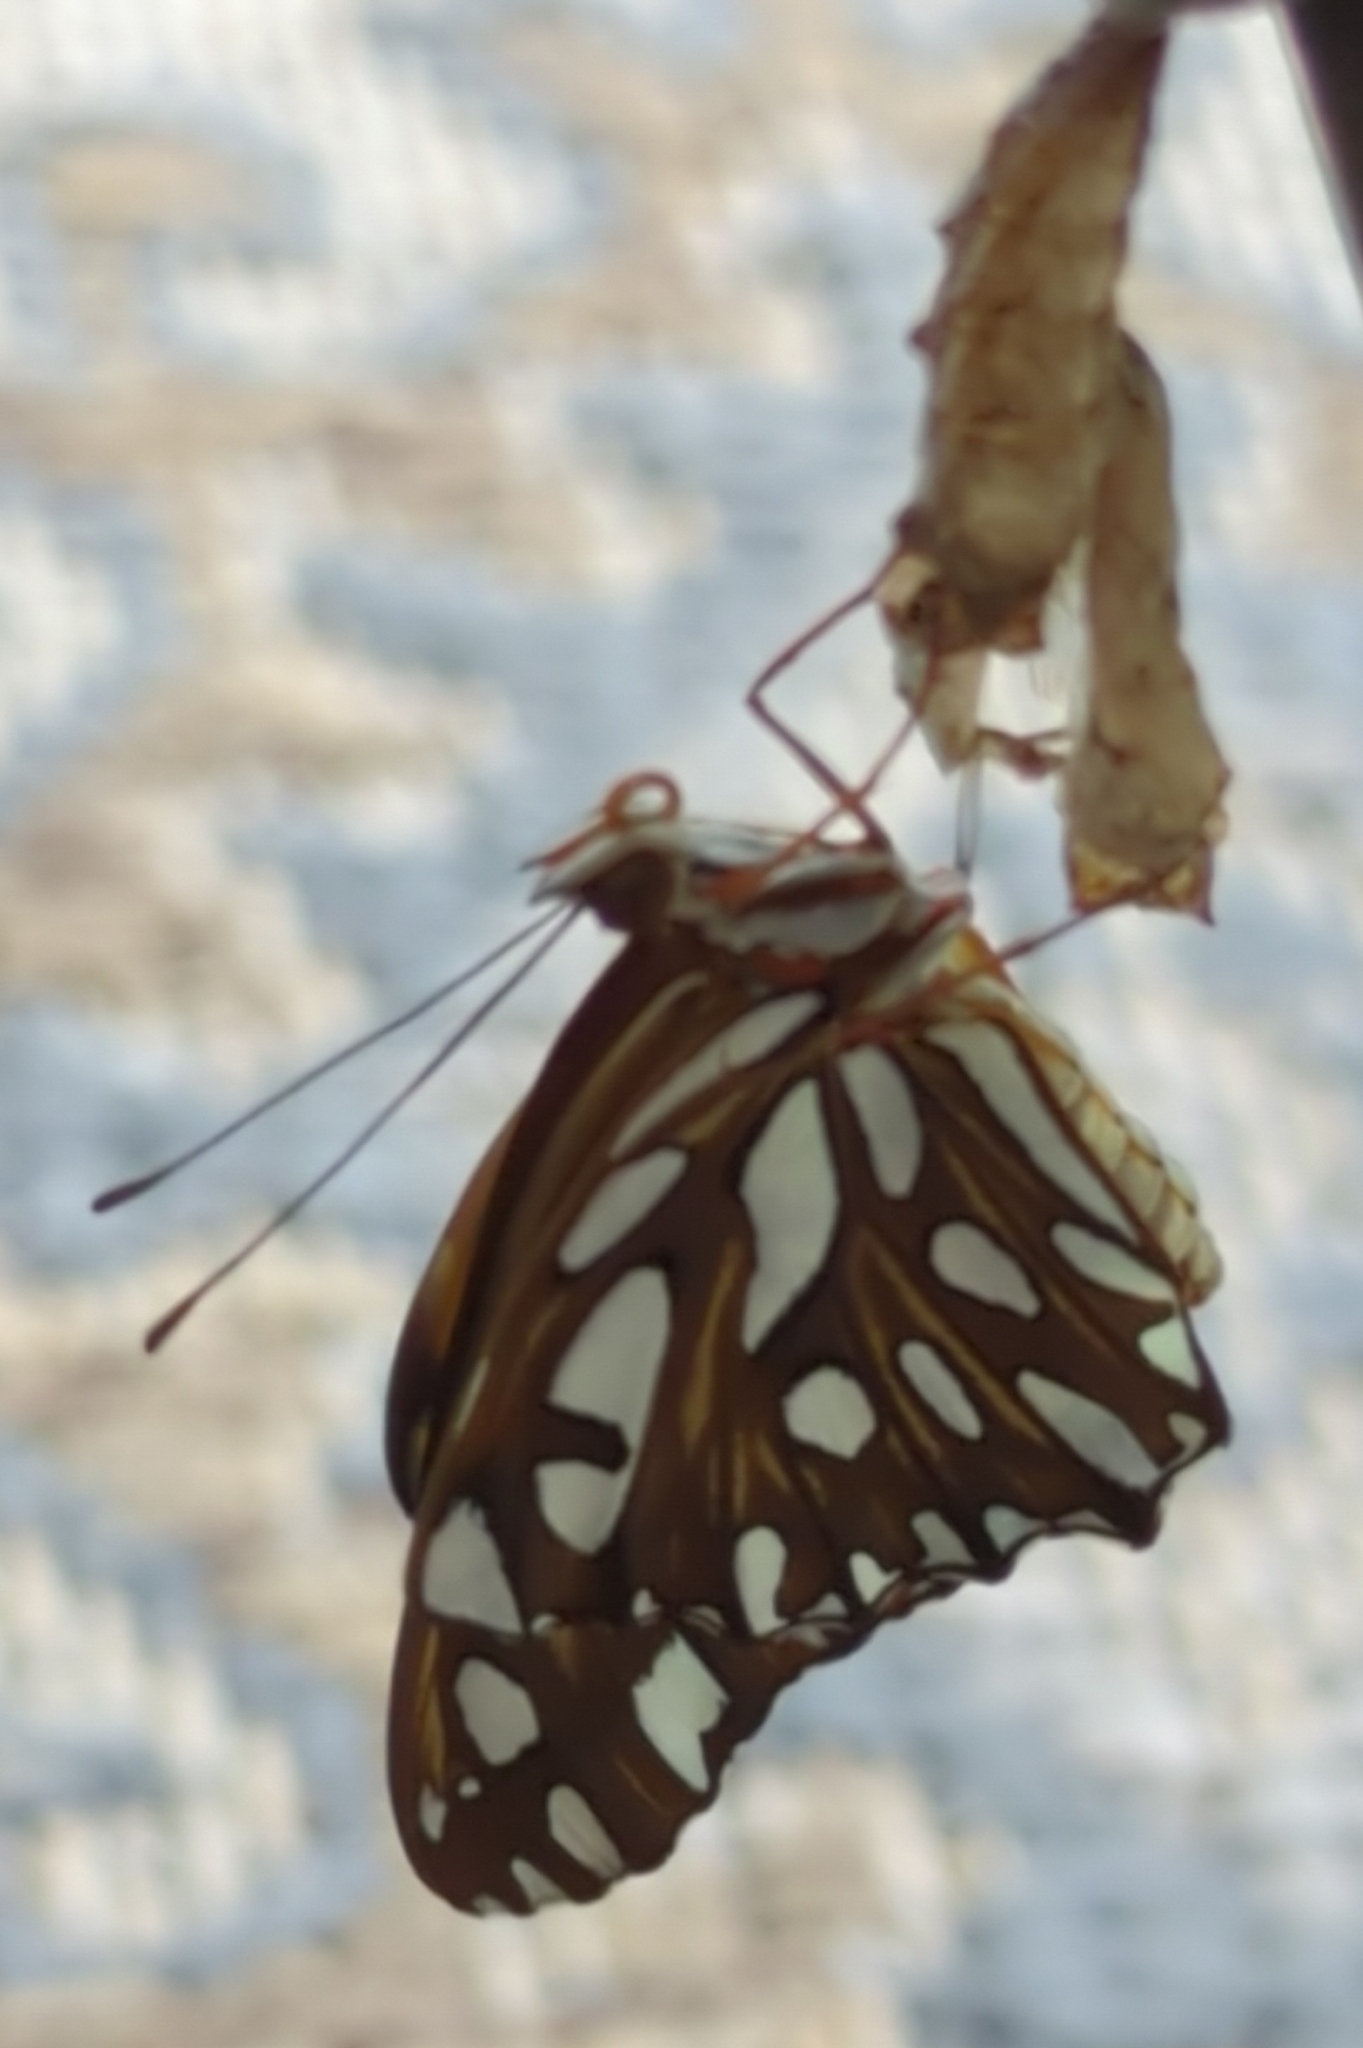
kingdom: Animalia
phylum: Arthropoda
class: Insecta
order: Lepidoptera
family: Nymphalidae
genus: Dione
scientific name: Dione vanillae
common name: Gulf fritillary
